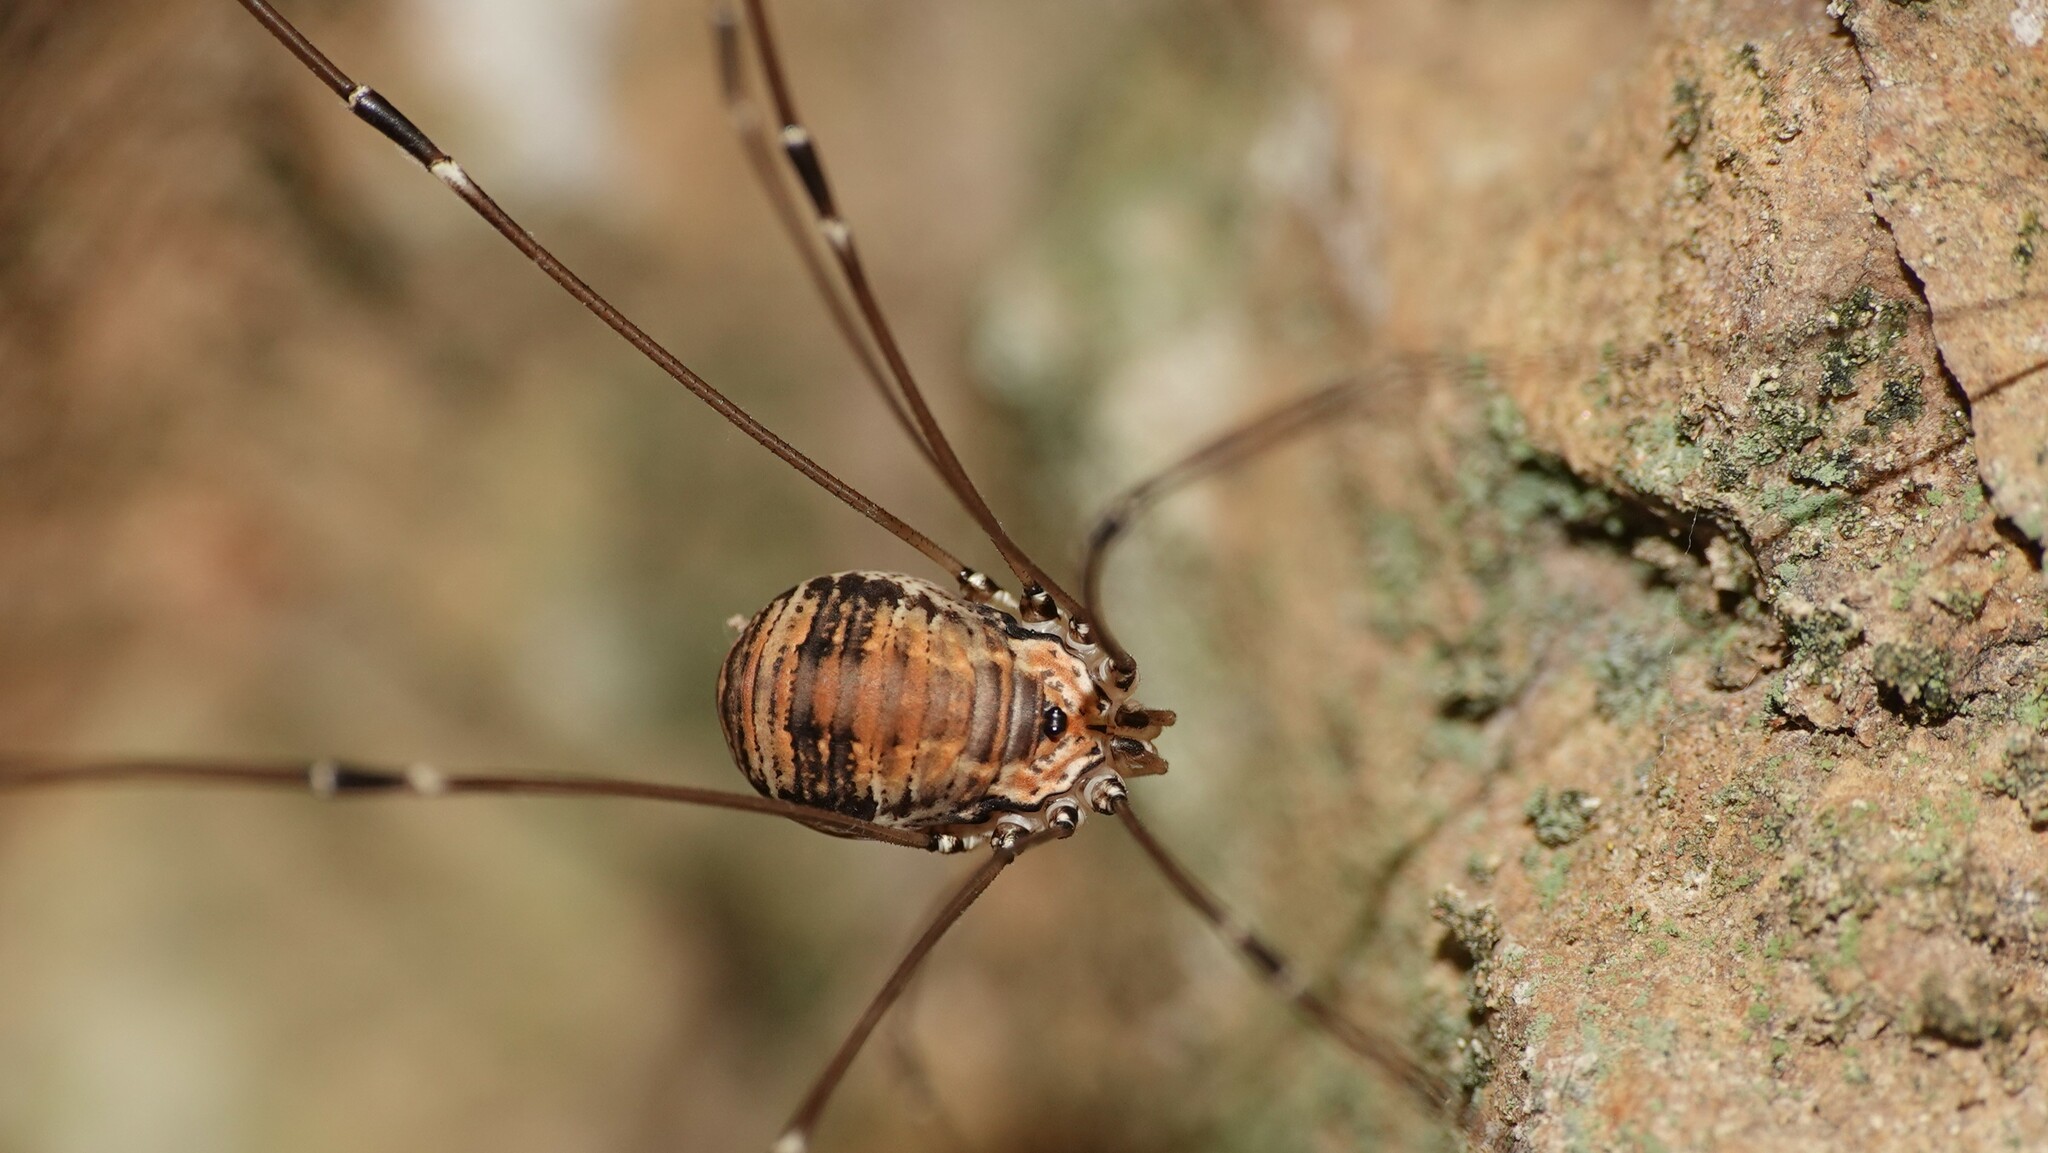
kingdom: Animalia
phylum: Arthropoda
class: Arachnida
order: Opiliones
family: Sclerosomatidae
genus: Leiobunum
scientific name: Leiobunum limbatum
